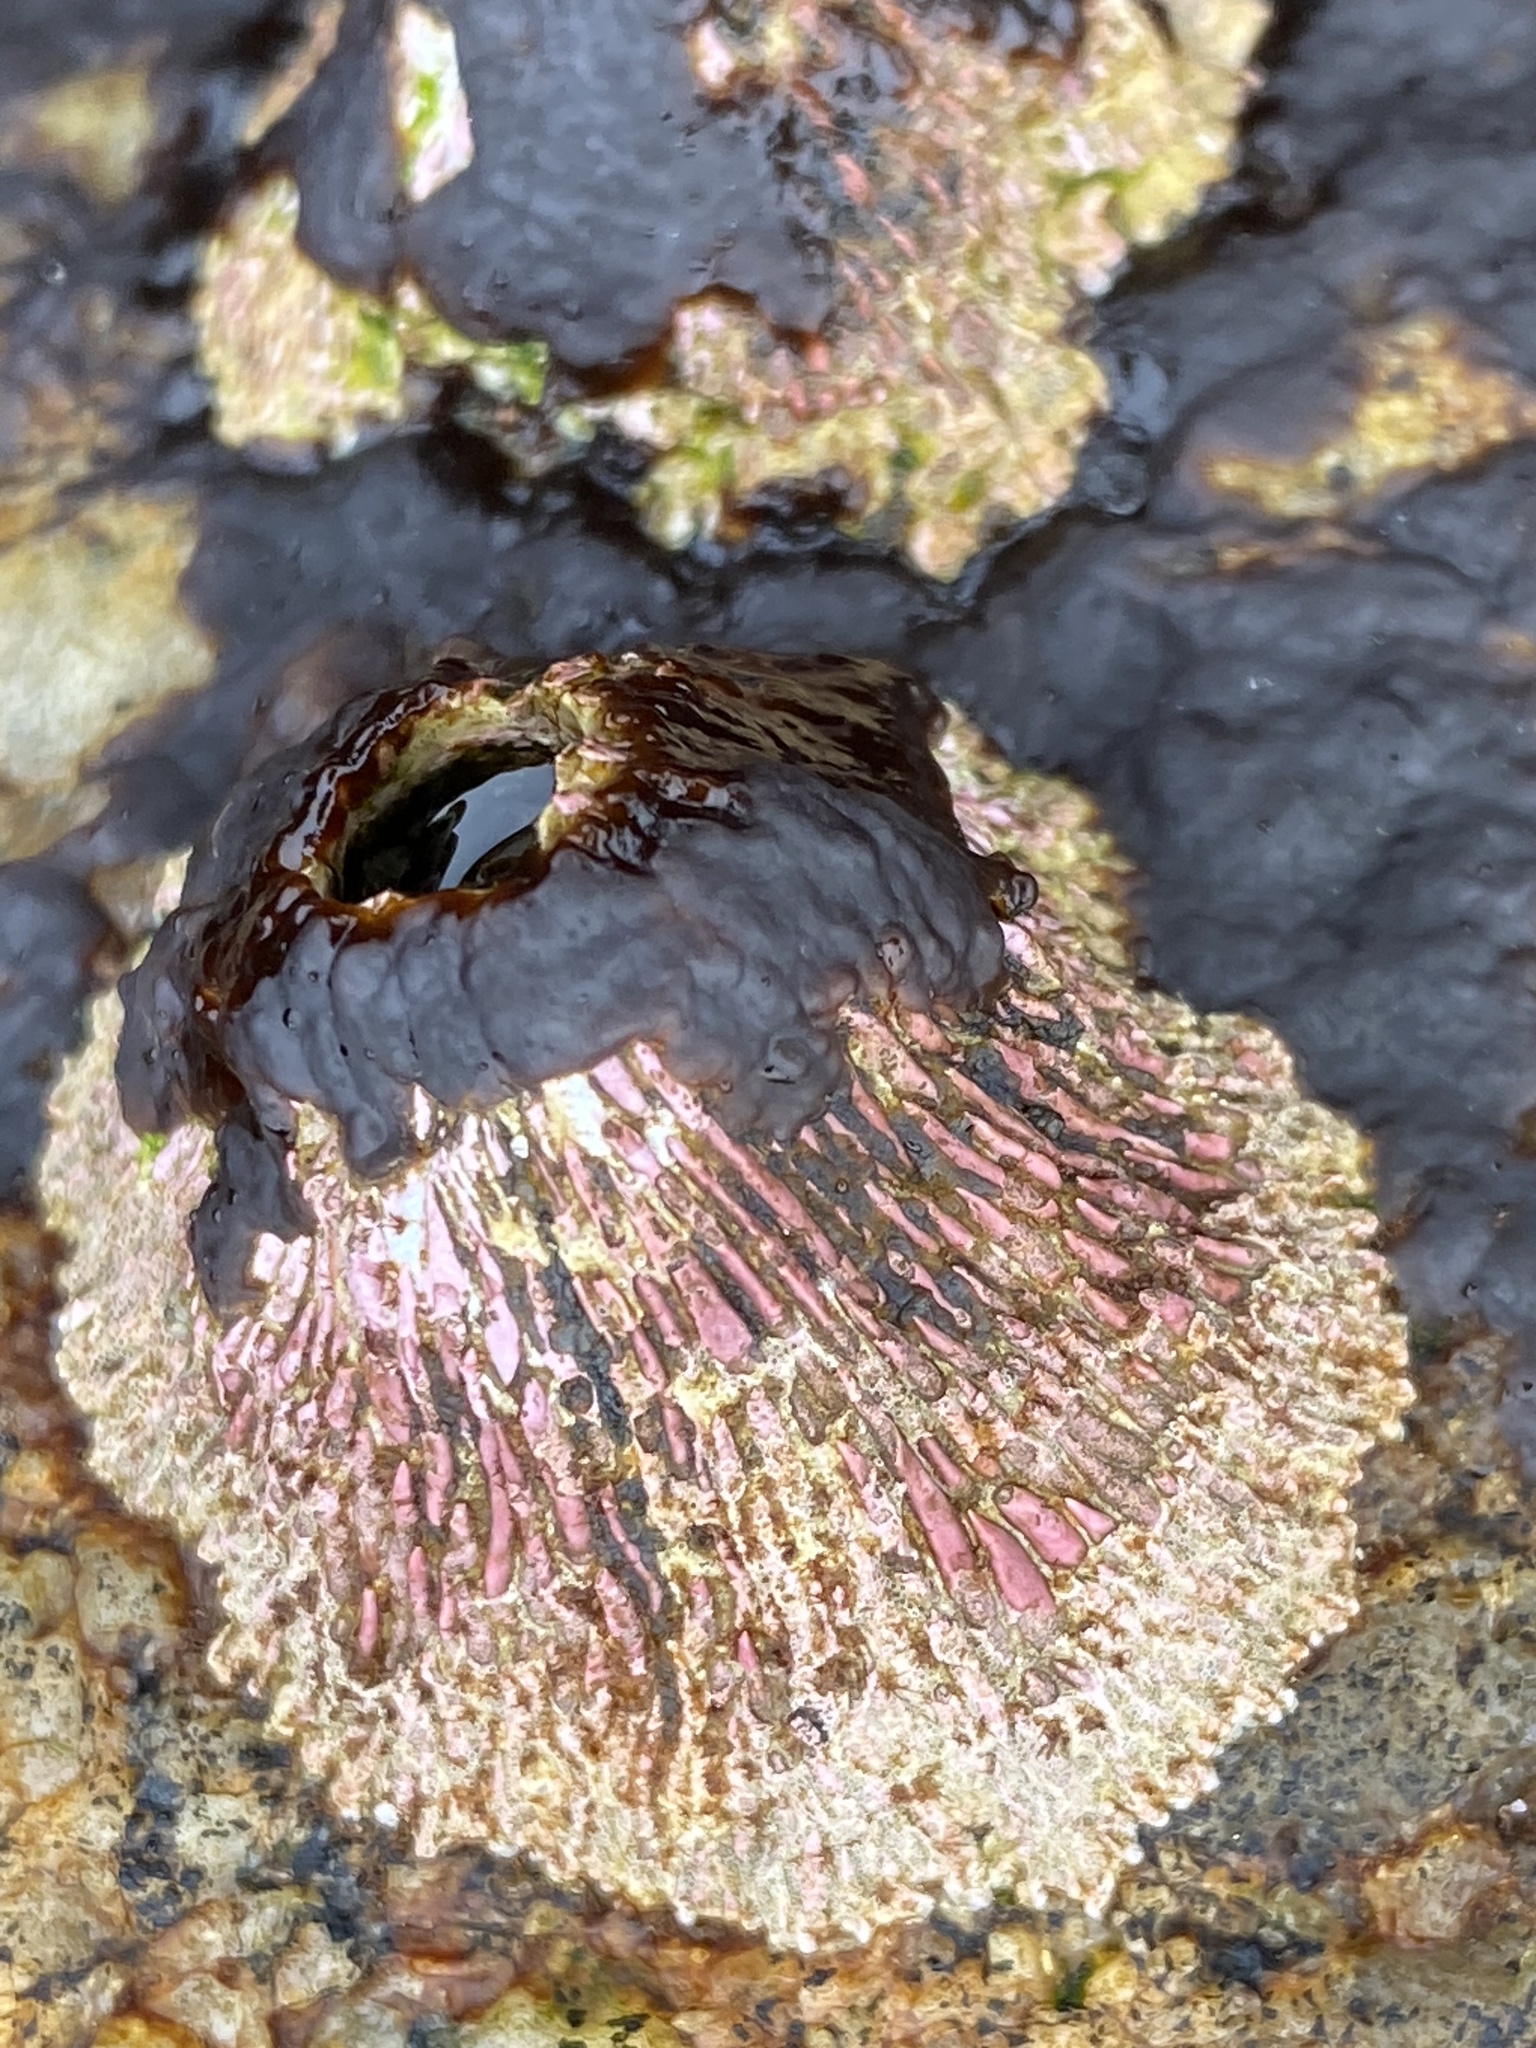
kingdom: Animalia
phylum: Arthropoda
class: Maxillopoda
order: Sessilia
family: Tetraclitidae
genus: Tetraclita
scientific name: Tetraclita rubescens
